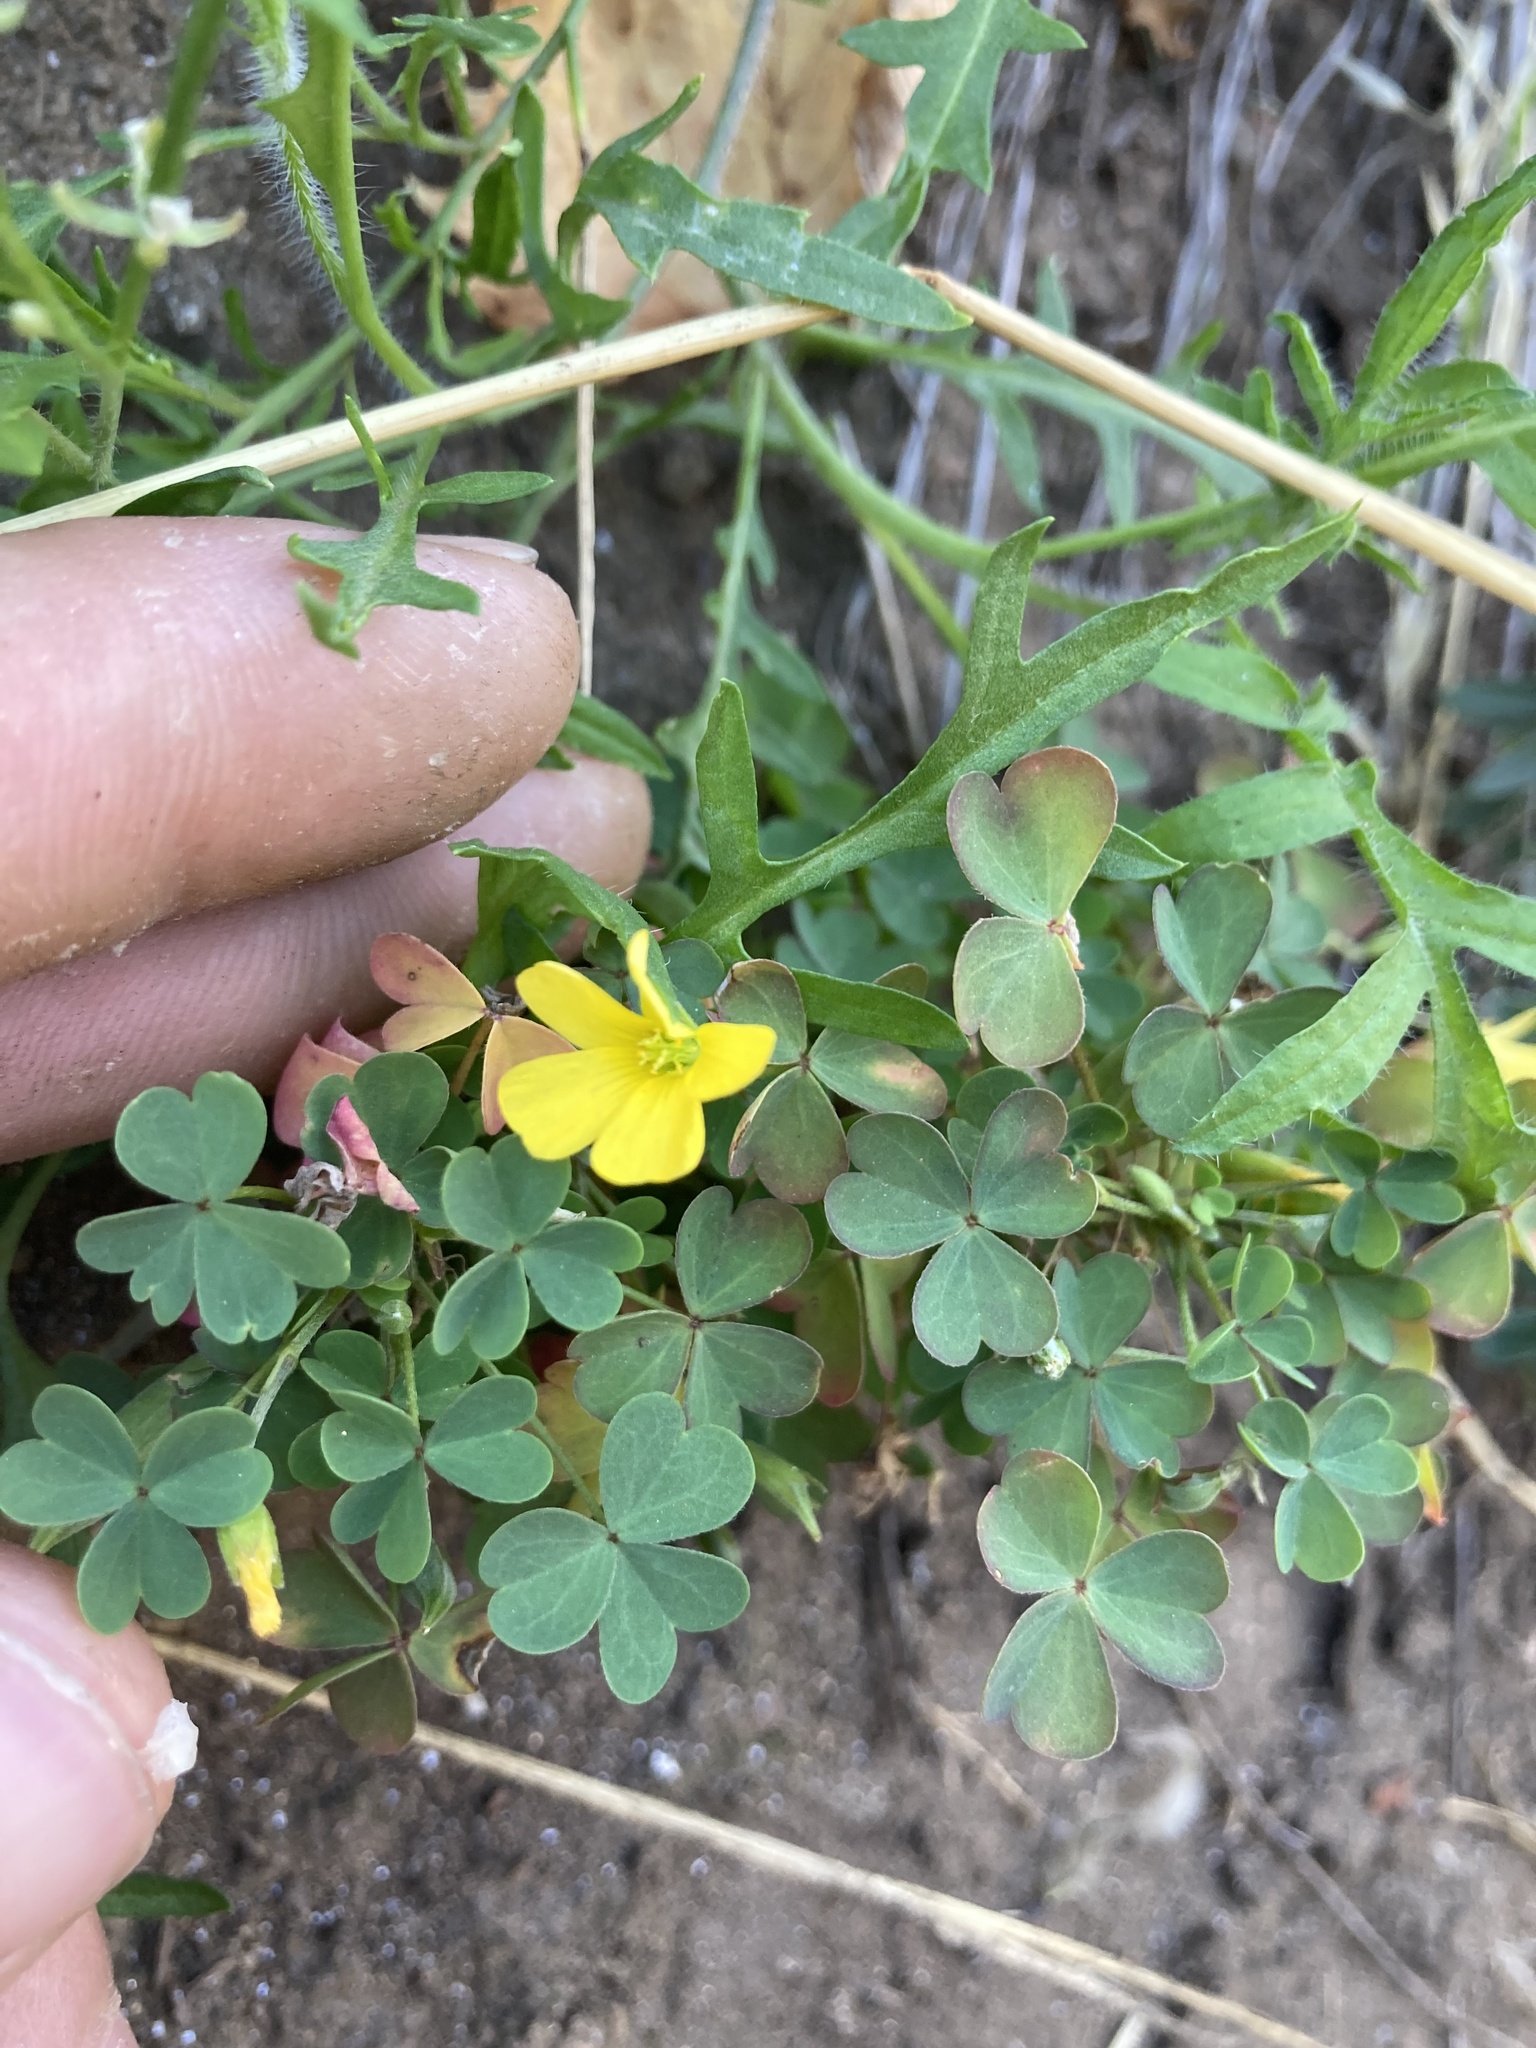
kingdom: Plantae
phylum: Tracheophyta
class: Magnoliopsida
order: Oxalidales
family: Oxalidaceae
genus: Oxalis
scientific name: Oxalis dillenii
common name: Sussex yellow-sorrel
